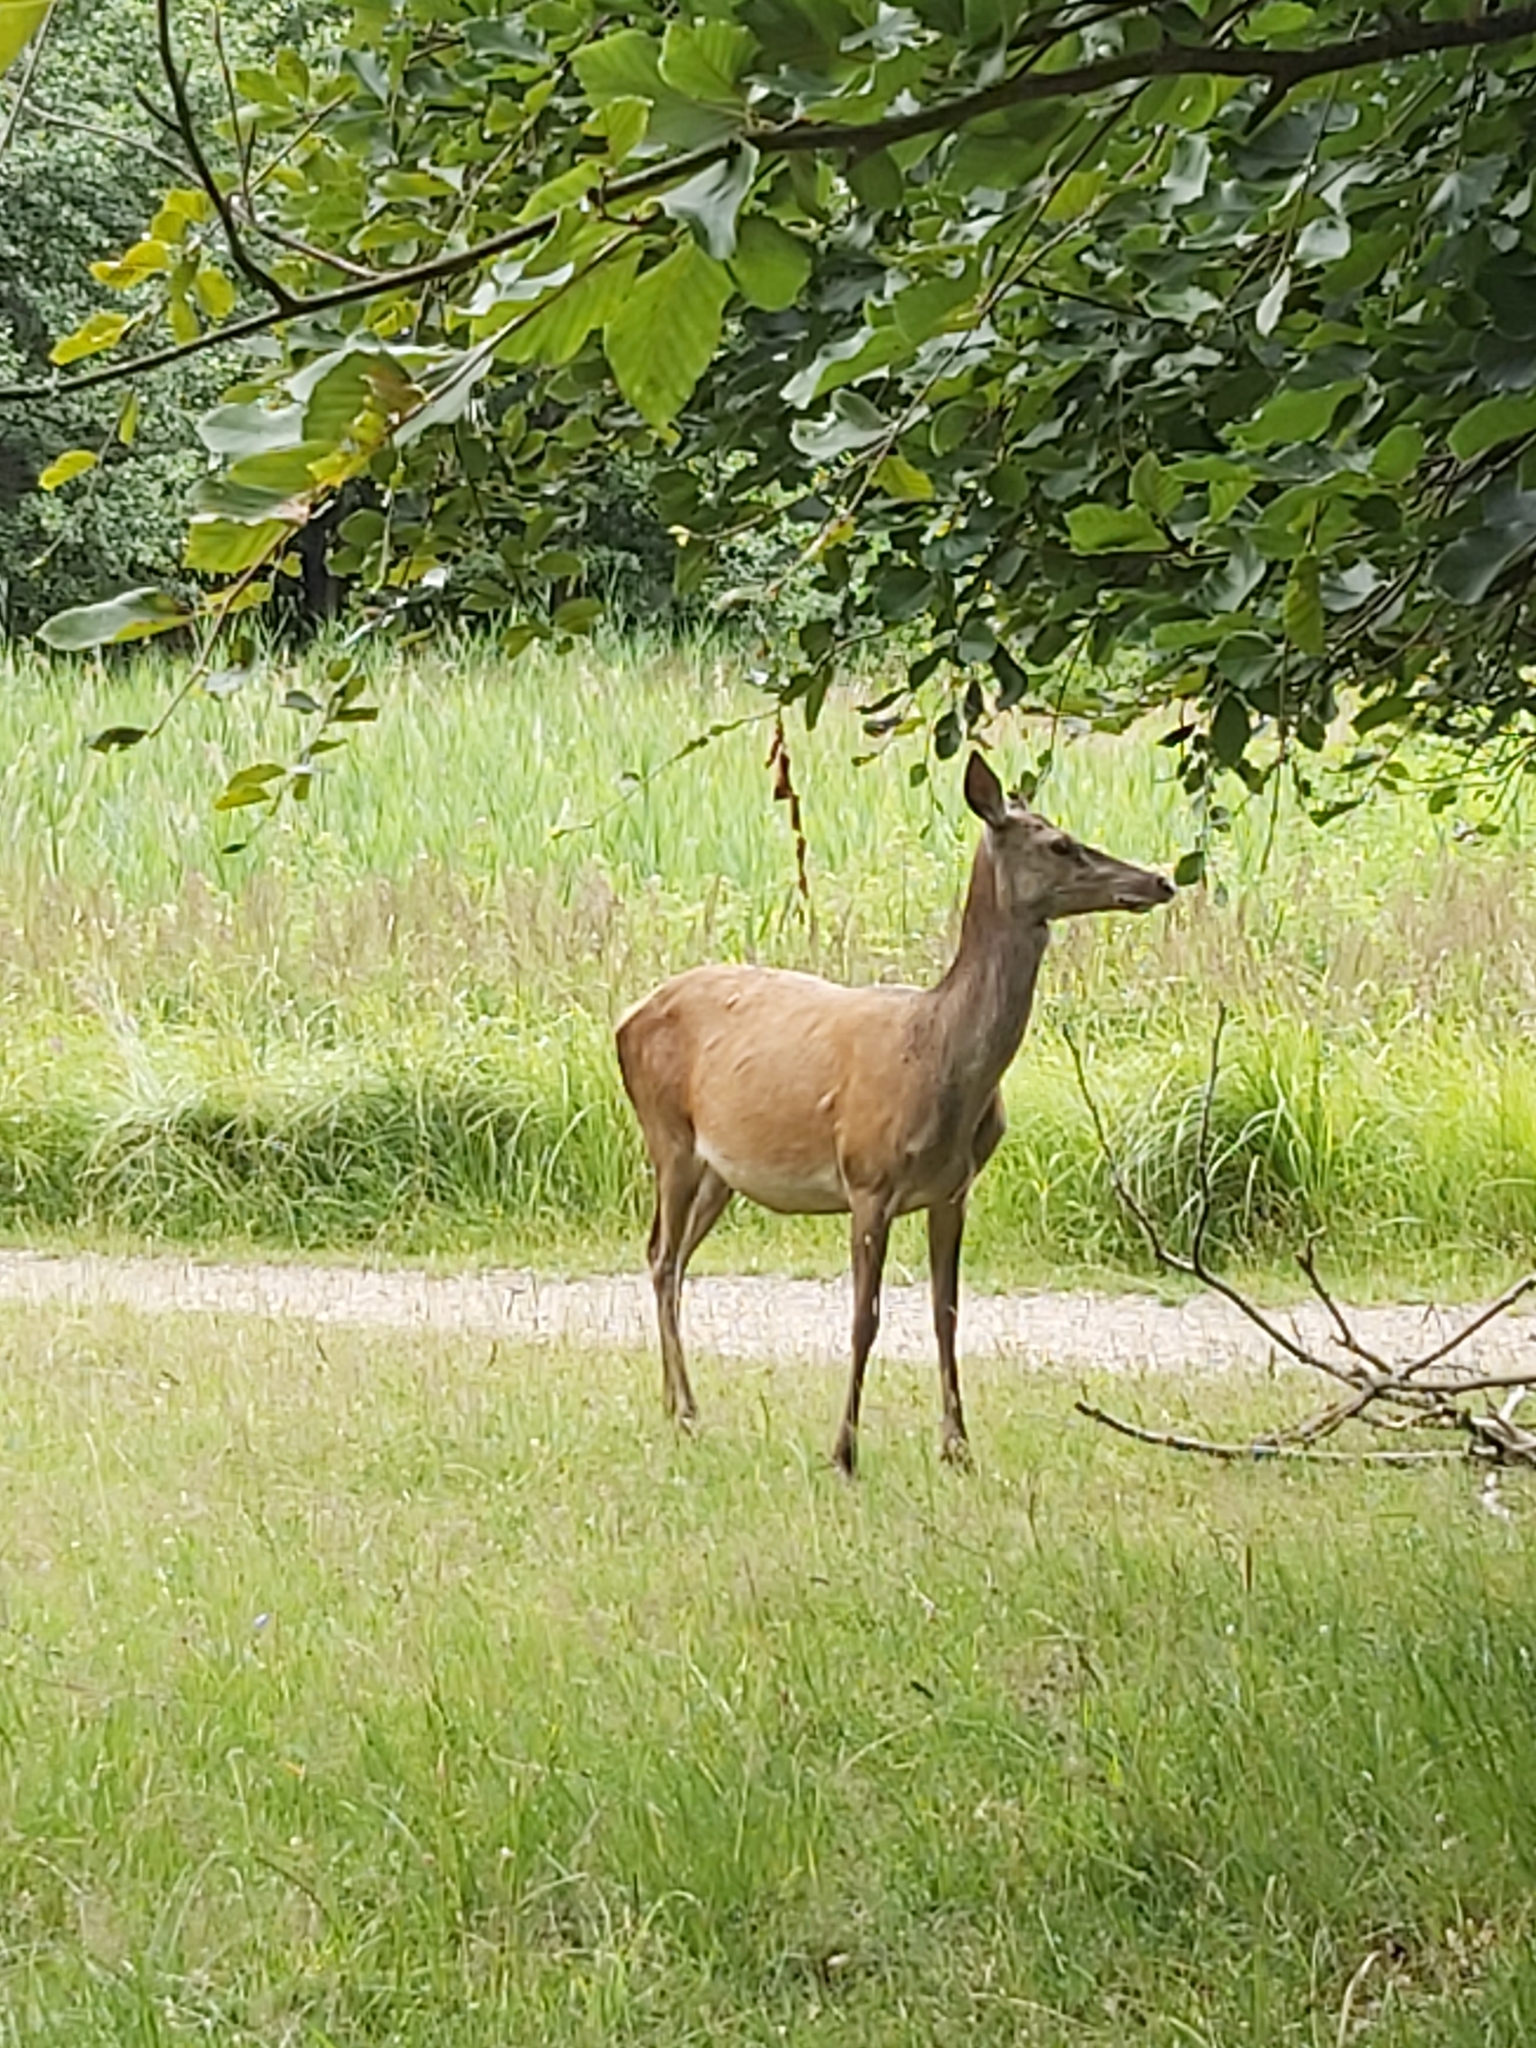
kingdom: Animalia
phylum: Chordata
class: Mammalia
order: Artiodactyla
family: Cervidae
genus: Cervus
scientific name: Cervus elaphus
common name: Red deer
